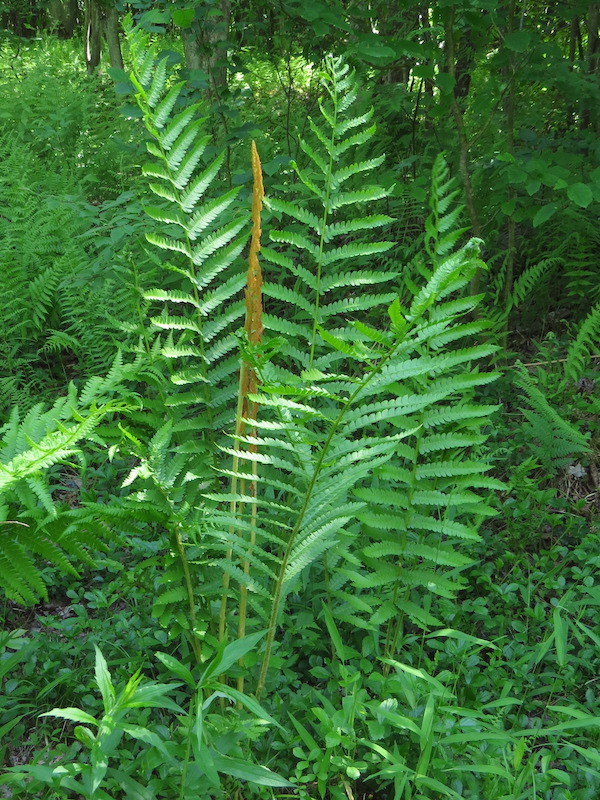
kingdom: Plantae
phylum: Tracheophyta
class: Polypodiopsida
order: Osmundales
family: Osmundaceae
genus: Osmundastrum
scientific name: Osmundastrum cinnamomeum
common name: Cinnamon fern
